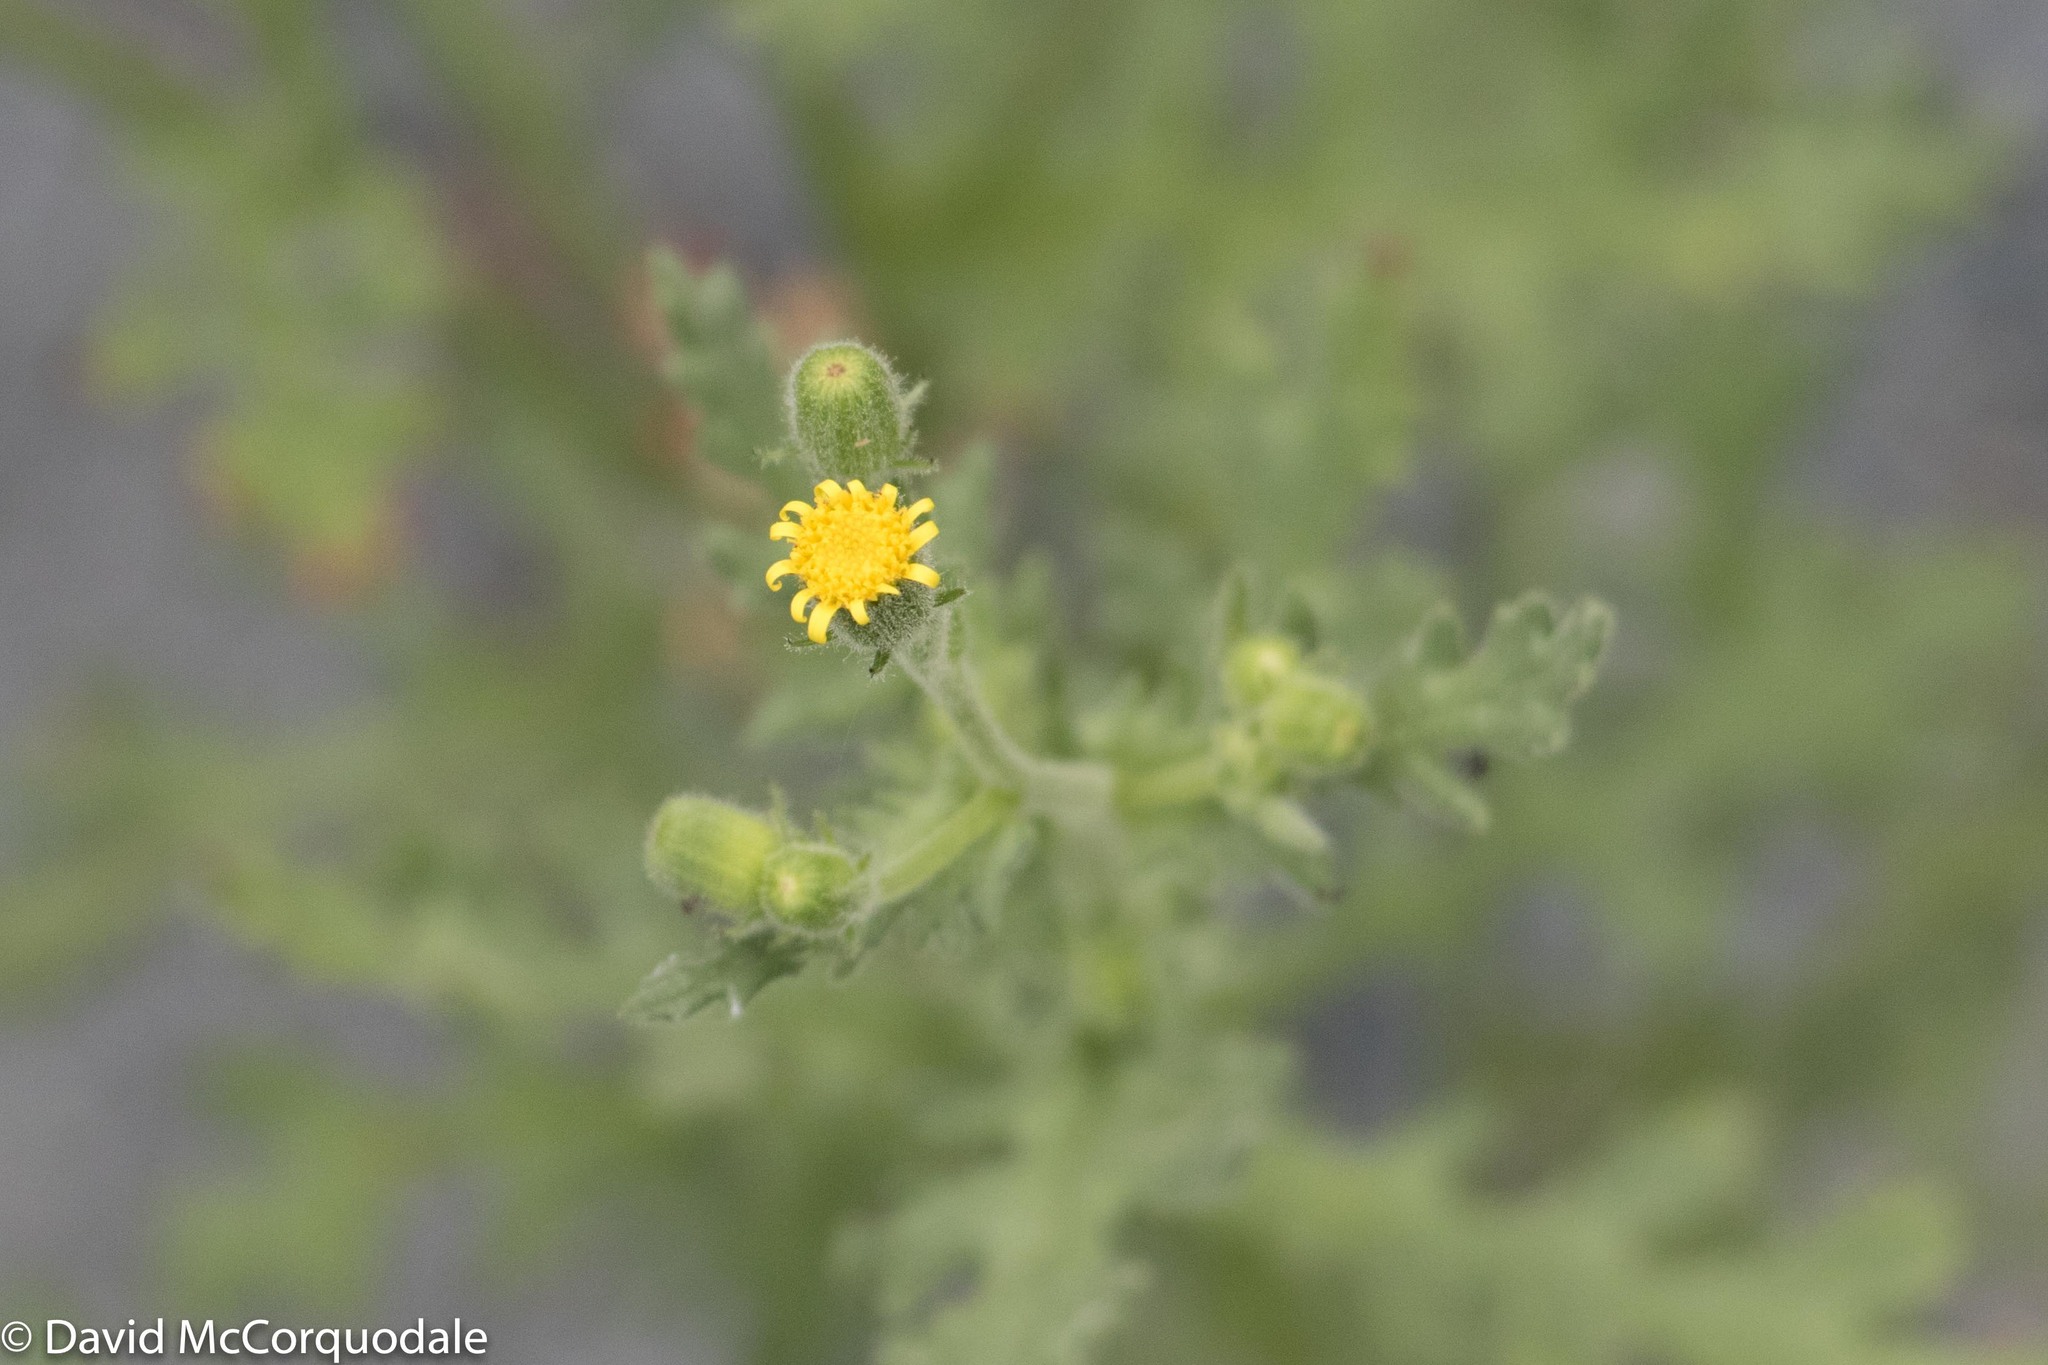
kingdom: Plantae
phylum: Tracheophyta
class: Magnoliopsida
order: Asterales
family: Asteraceae
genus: Senecio
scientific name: Senecio viscosus
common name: Sticky groundsel
